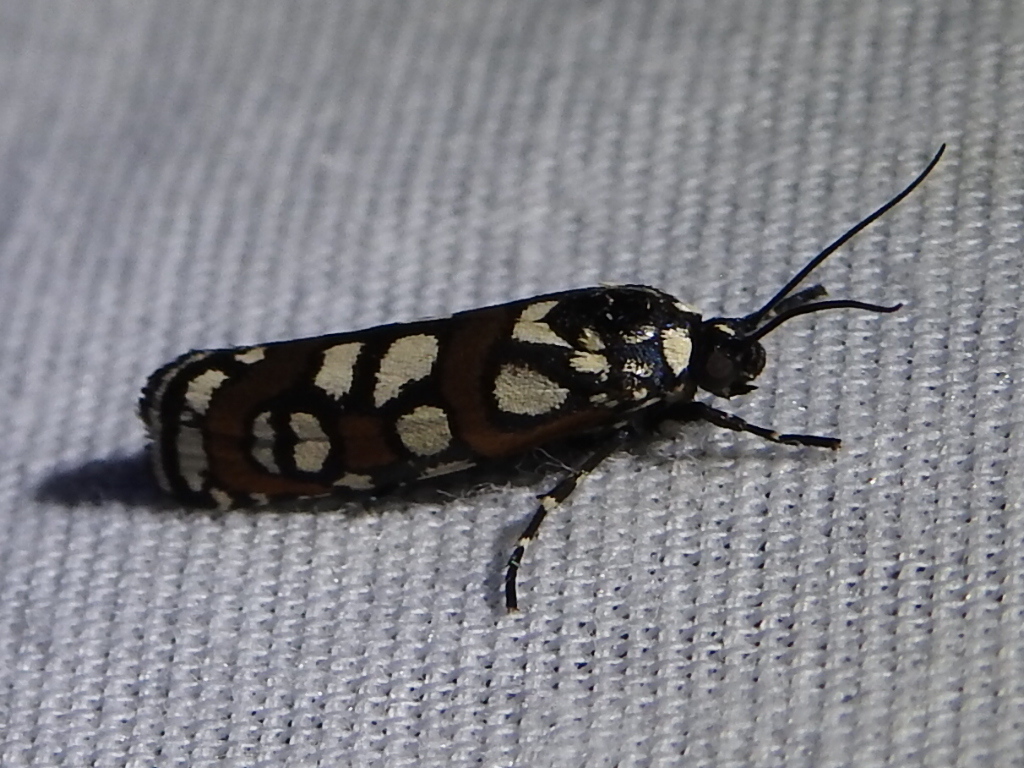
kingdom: Animalia
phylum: Arthropoda
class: Insecta
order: Lepidoptera
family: Noctuidae
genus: Cydosia
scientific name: Cydosia aurivitta
